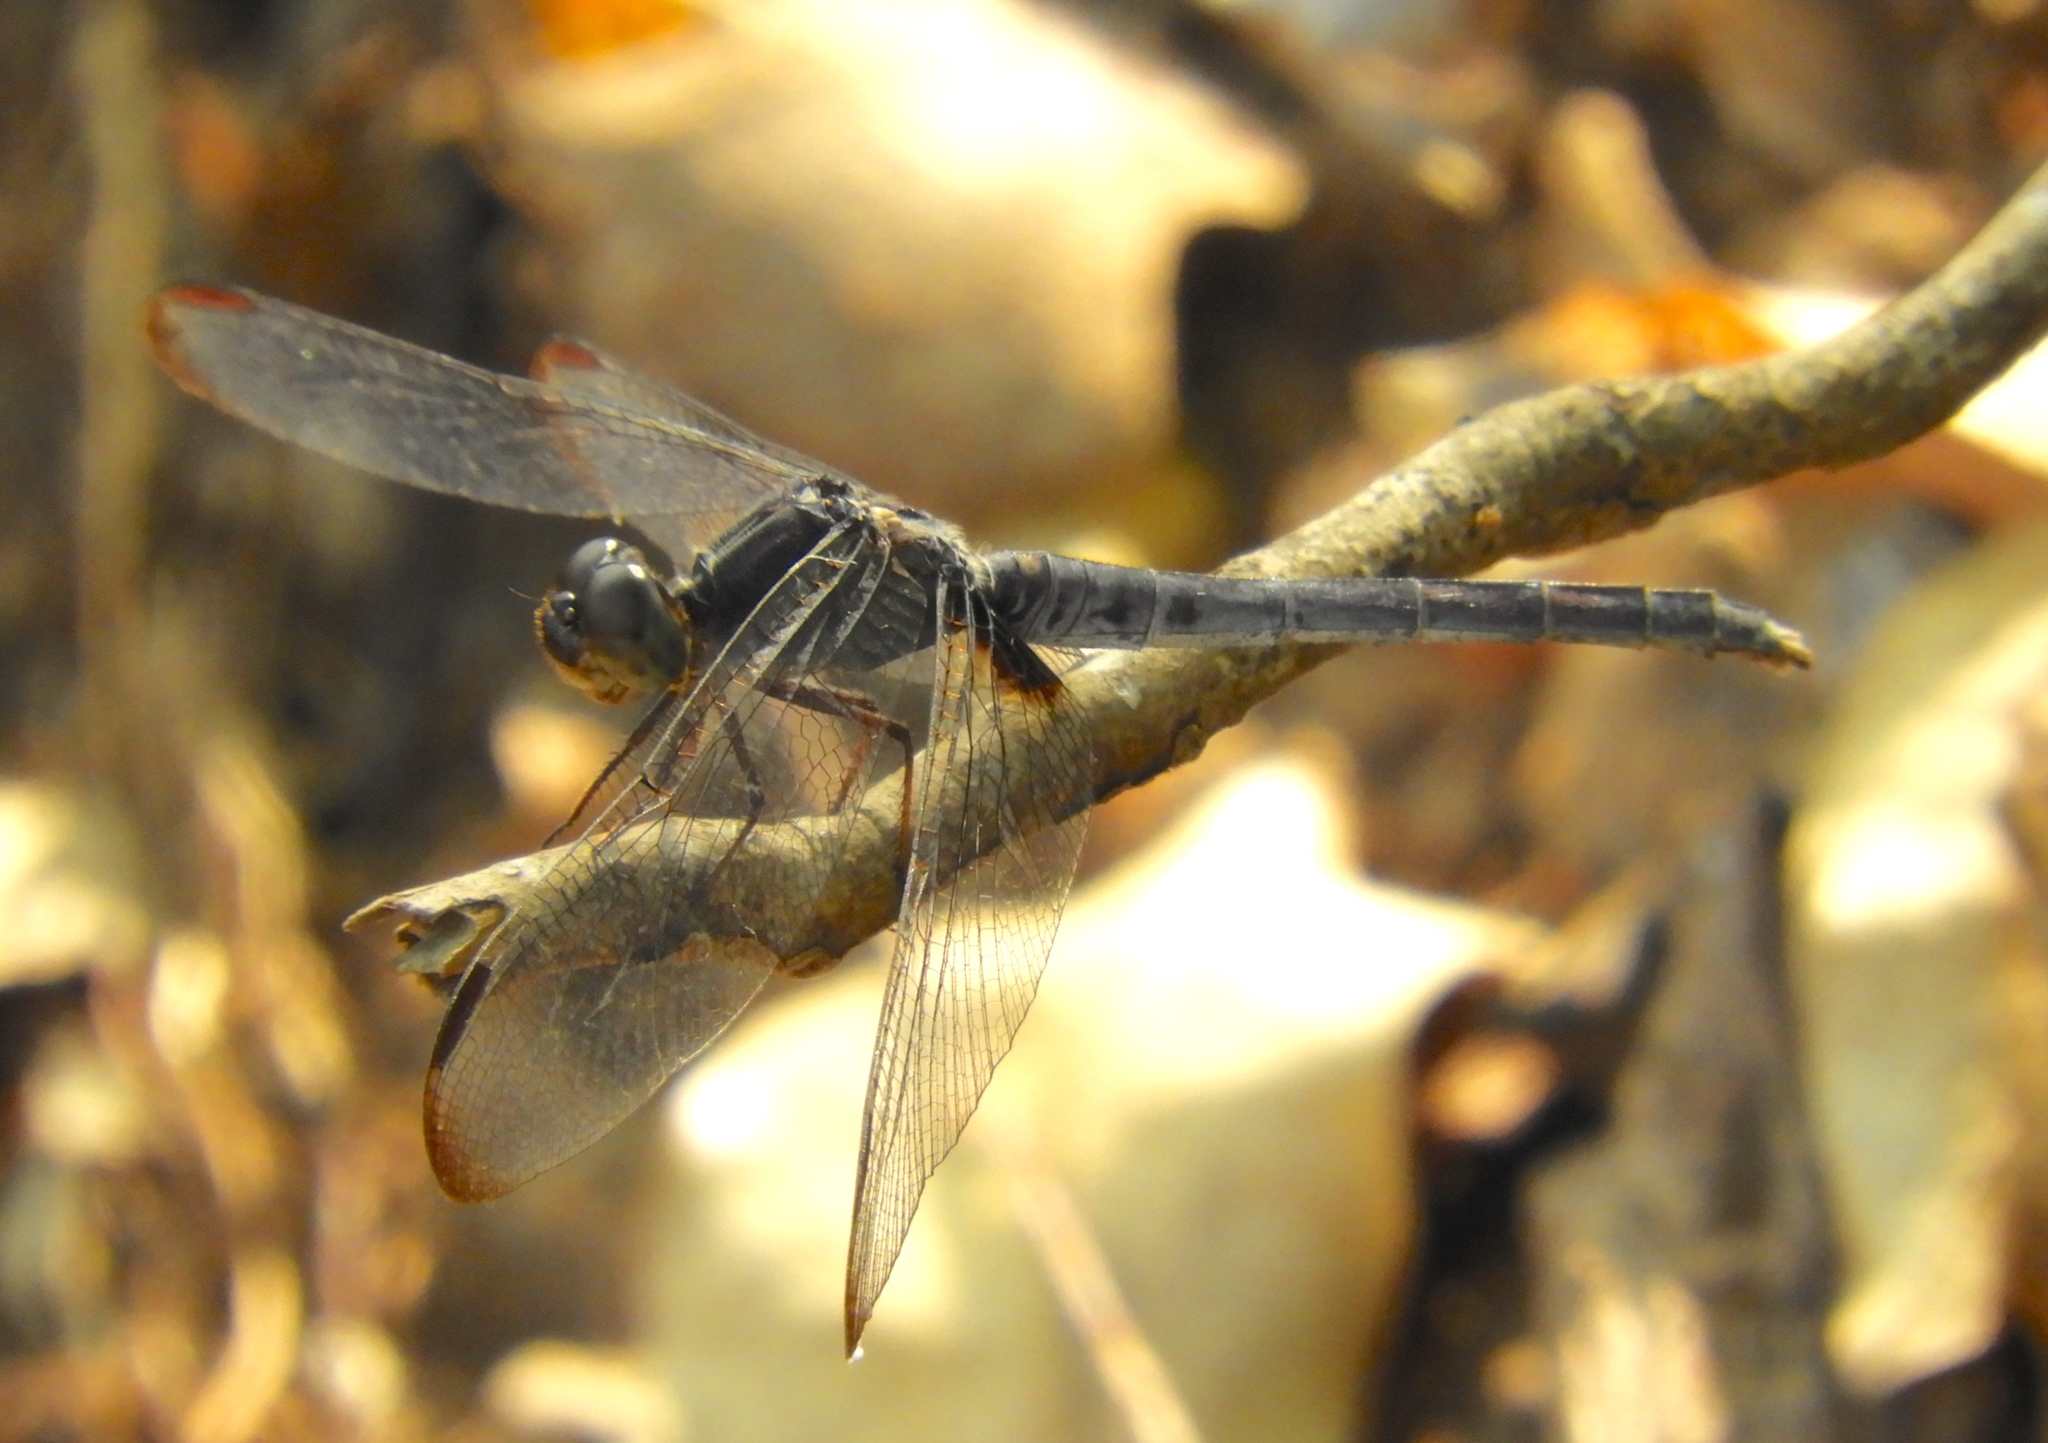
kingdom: Animalia
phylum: Arthropoda
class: Insecta
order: Odonata
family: Libellulidae
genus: Erythrodiplax
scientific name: Erythrodiplax funerea
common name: Black-winged dragonlet
